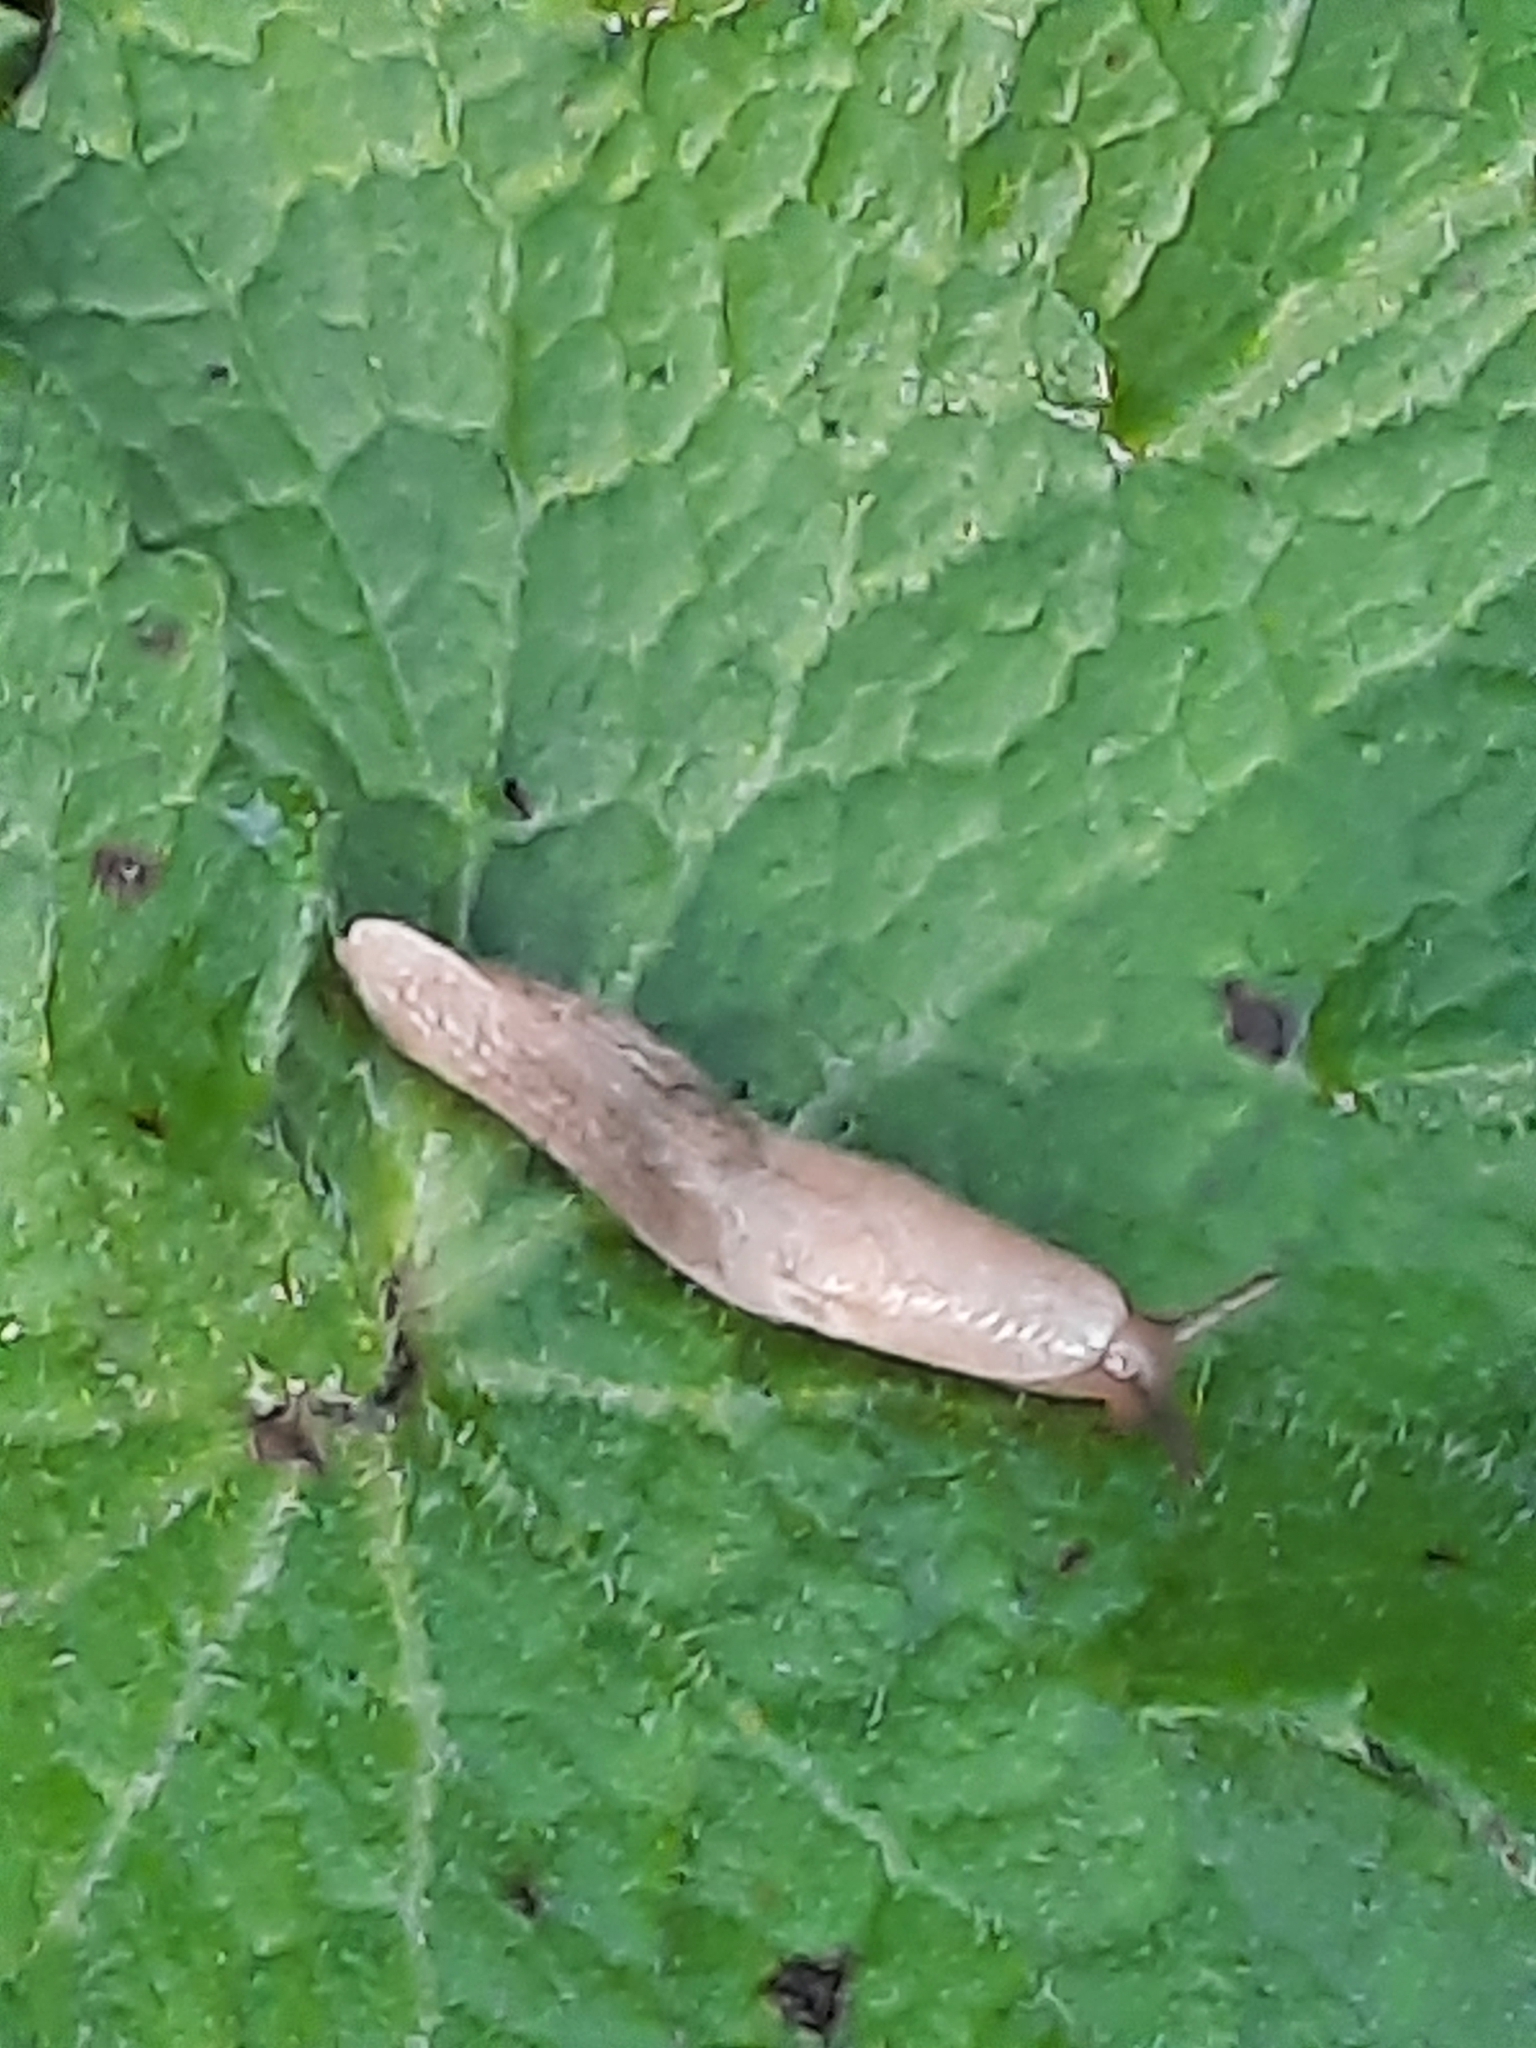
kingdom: Animalia
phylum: Mollusca
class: Gastropoda
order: Stylommatophora
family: Agriolimacidae
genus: Deroceras
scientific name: Deroceras reticulatum
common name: Gray field slug
